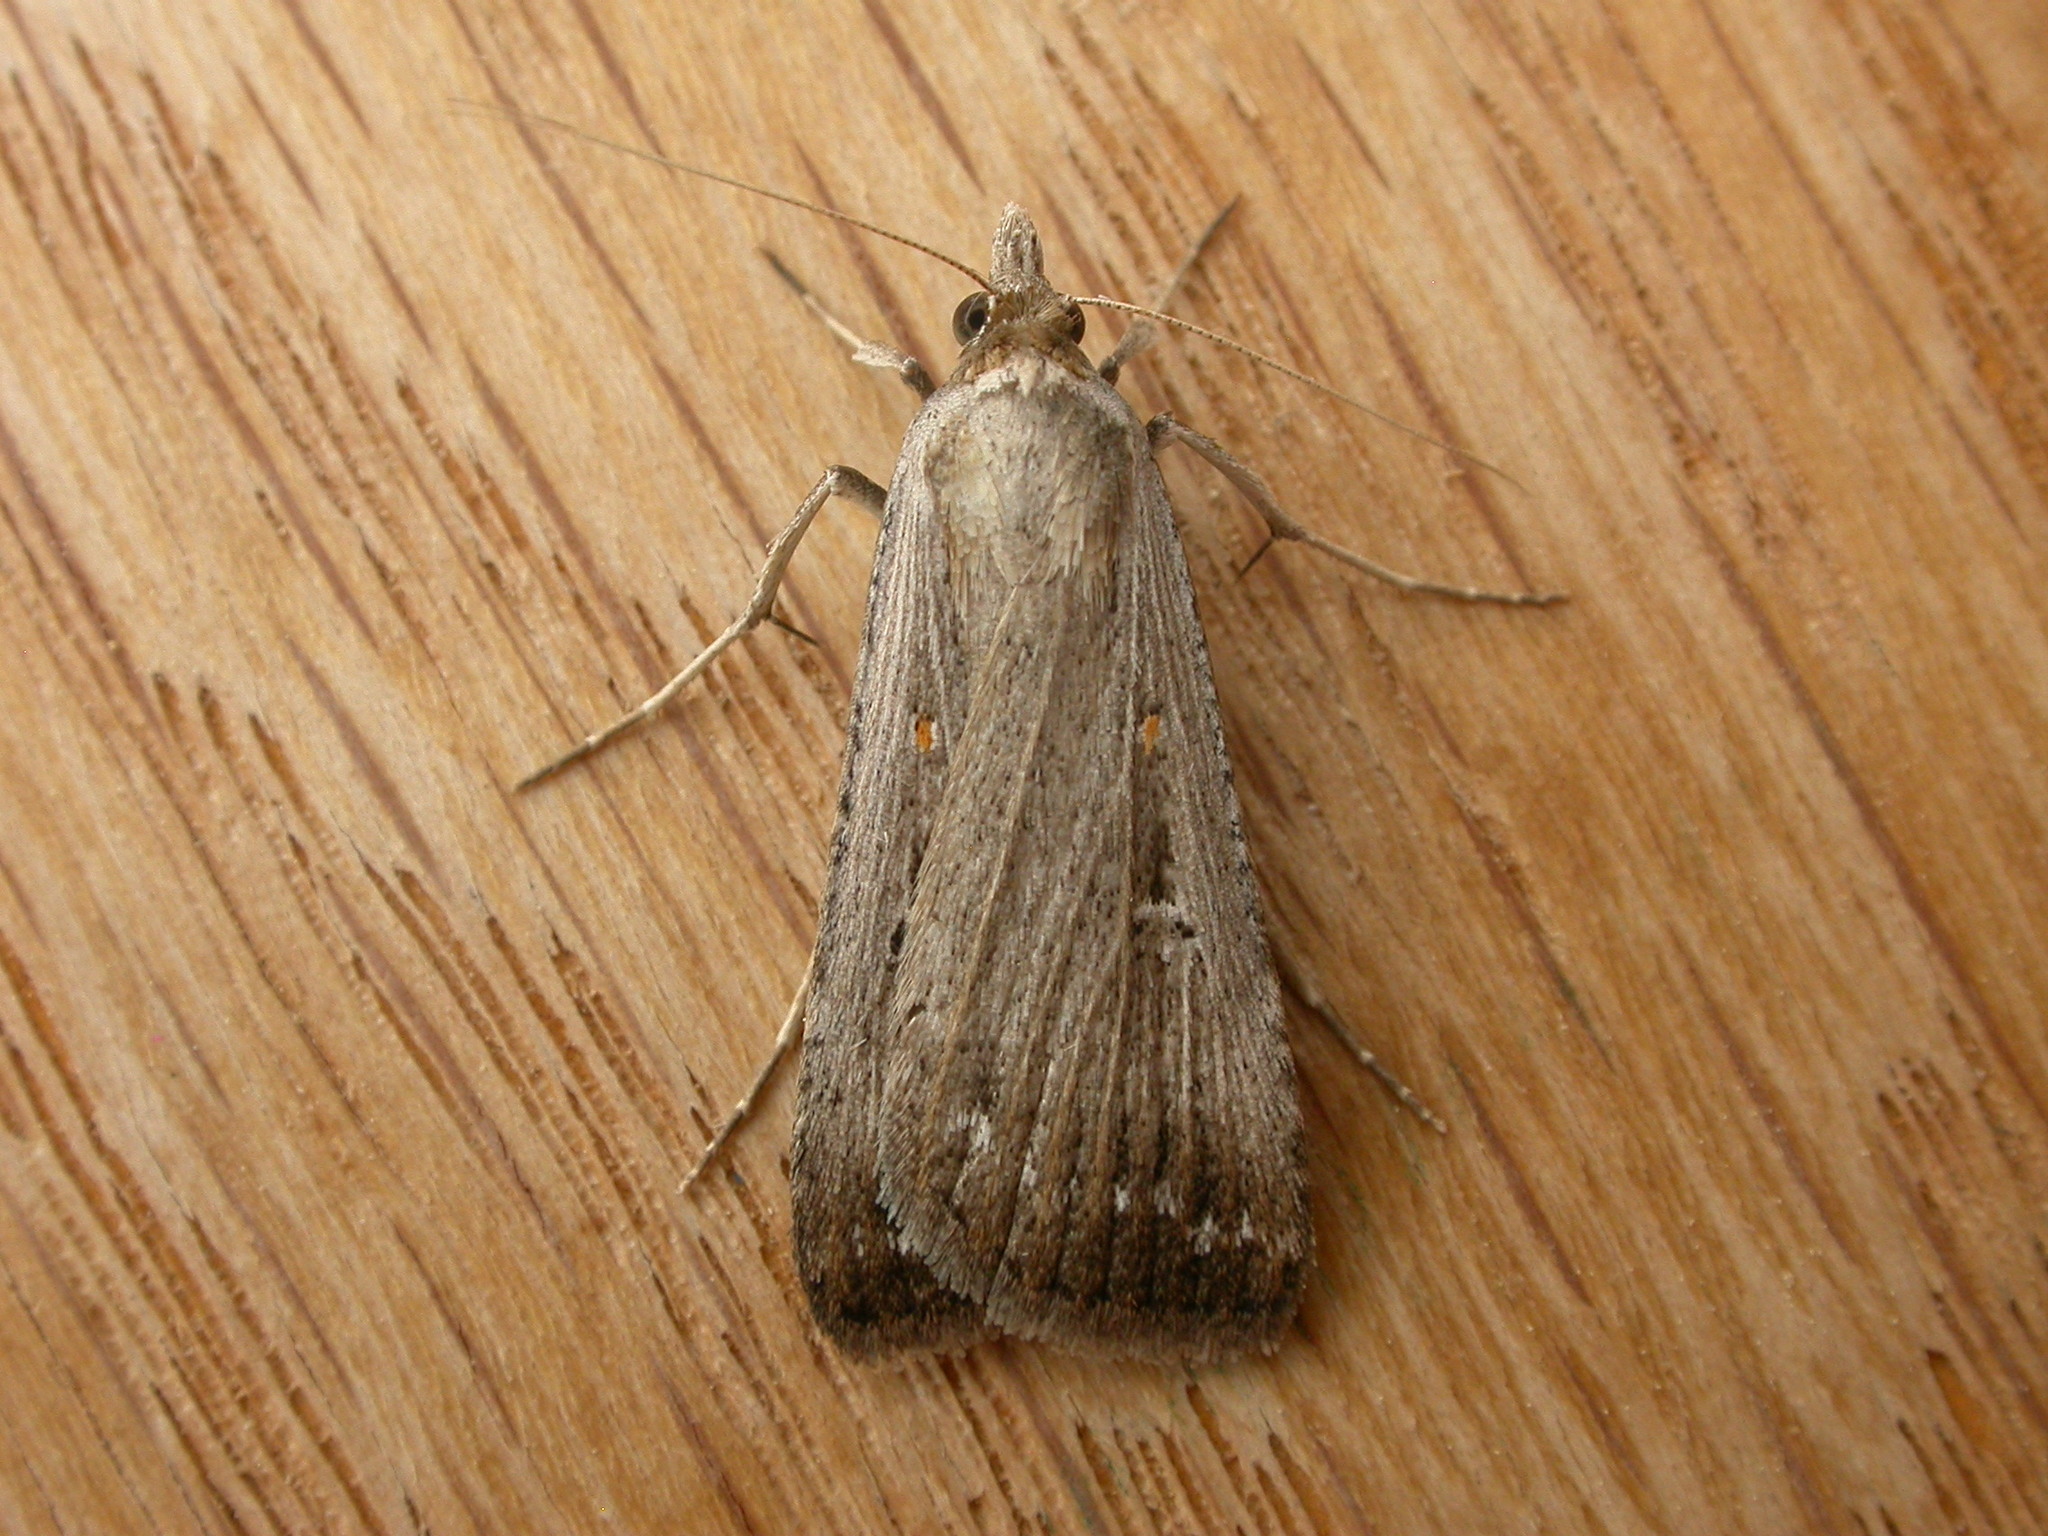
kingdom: Animalia
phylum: Arthropoda
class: Insecta
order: Lepidoptera
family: Noctuidae
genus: Tathorhynchus
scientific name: Tathorhynchus fallax
